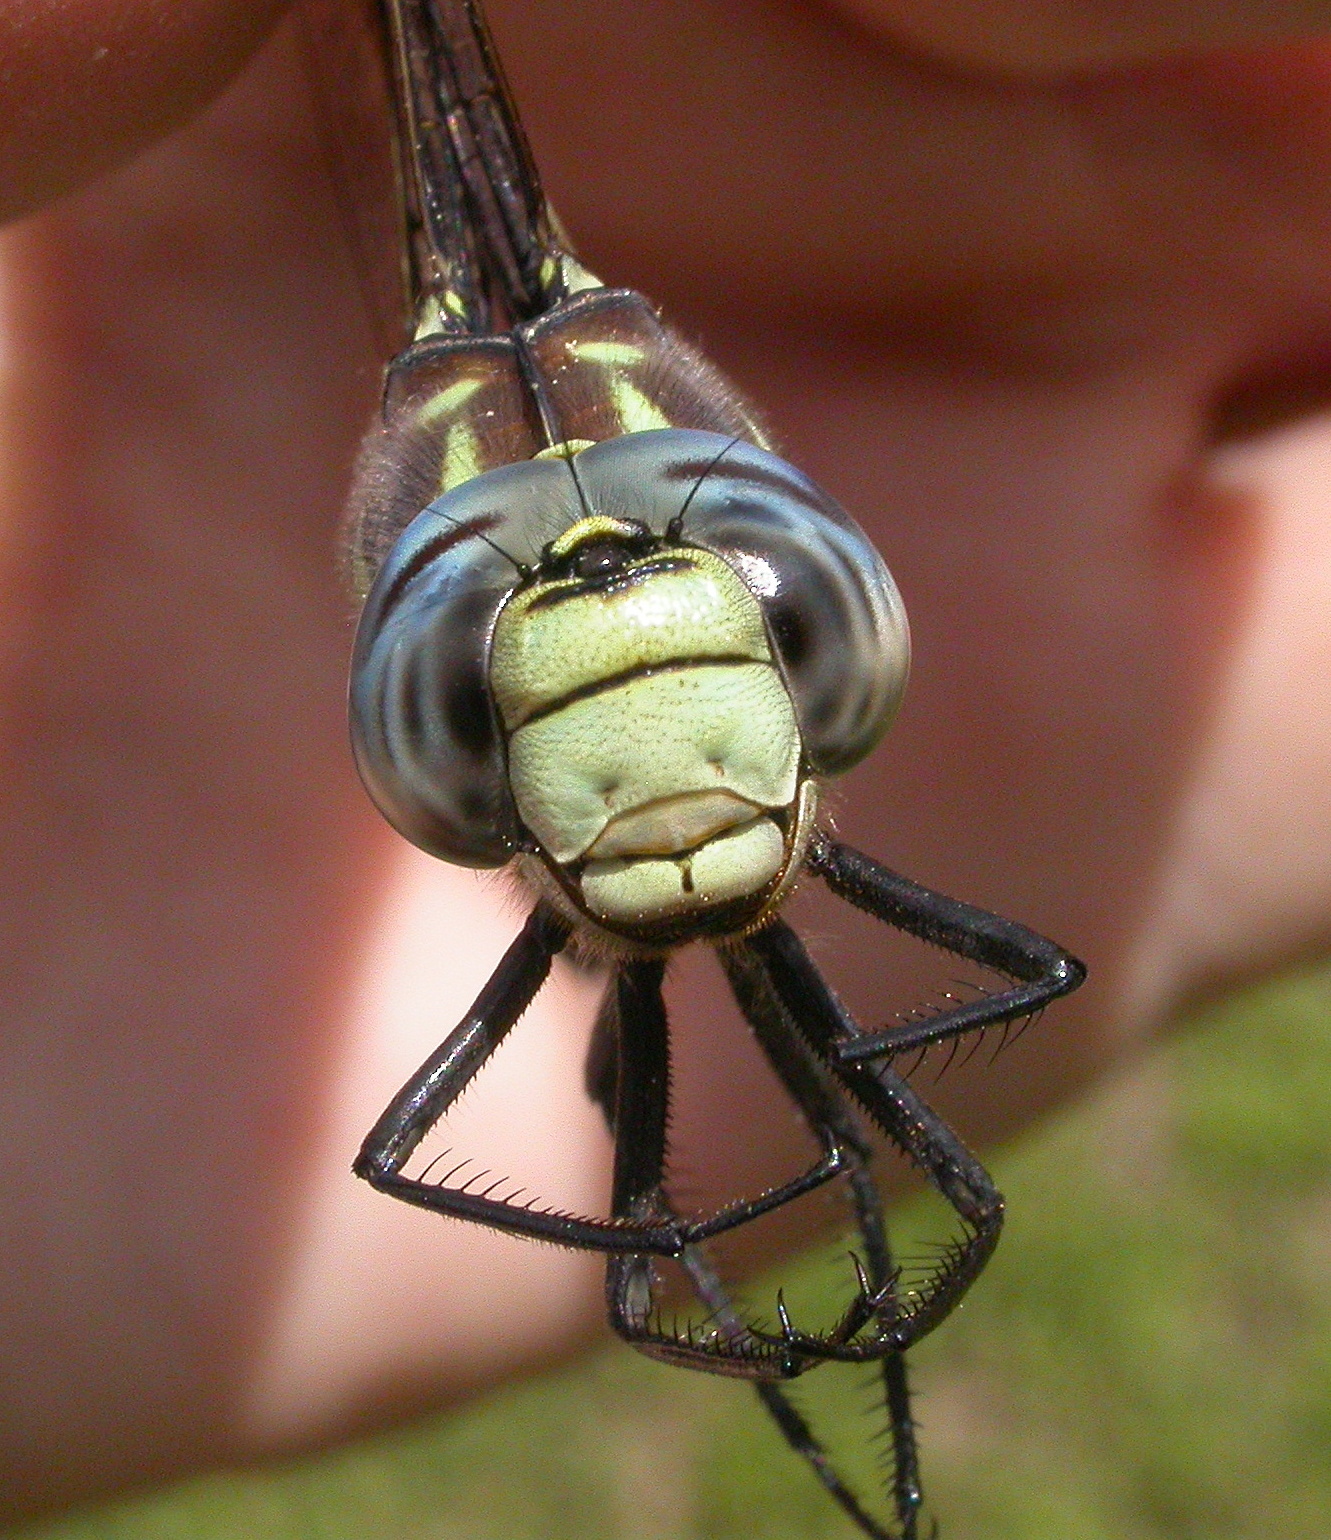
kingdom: Animalia
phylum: Arthropoda
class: Insecta
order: Odonata
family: Aeshnidae
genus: Aeshna
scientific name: Aeshna palmata
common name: Paddle-tailed darner
